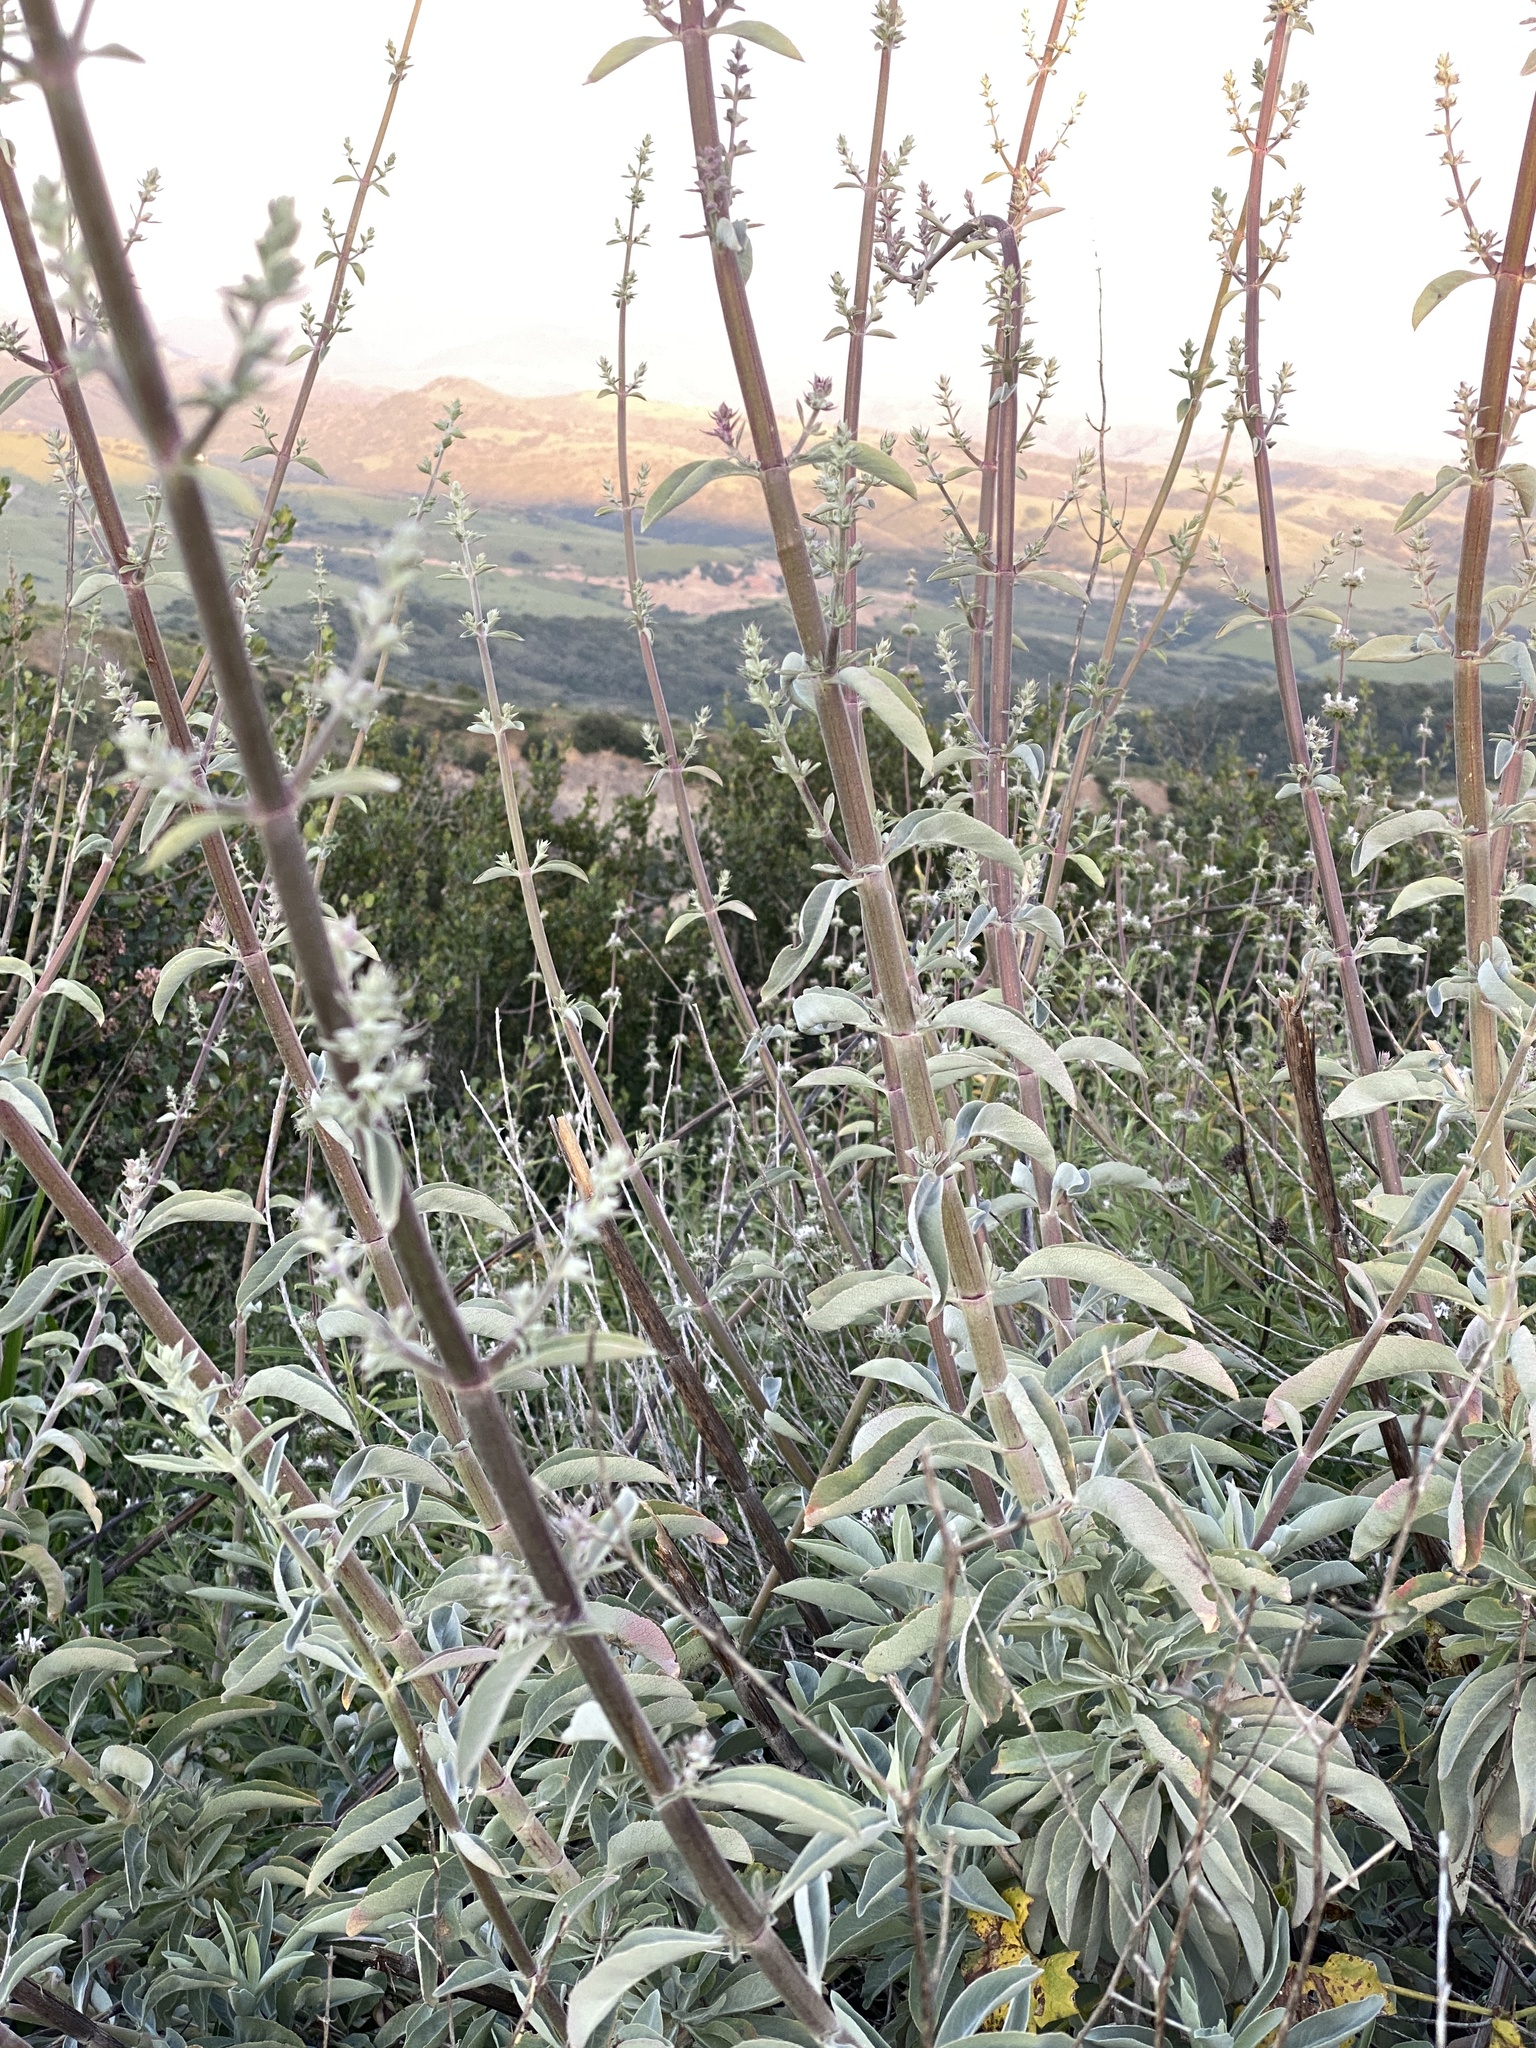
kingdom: Plantae
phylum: Tracheophyta
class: Magnoliopsida
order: Lamiales
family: Lamiaceae
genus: Salvia
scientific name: Salvia apiana
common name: White sage
